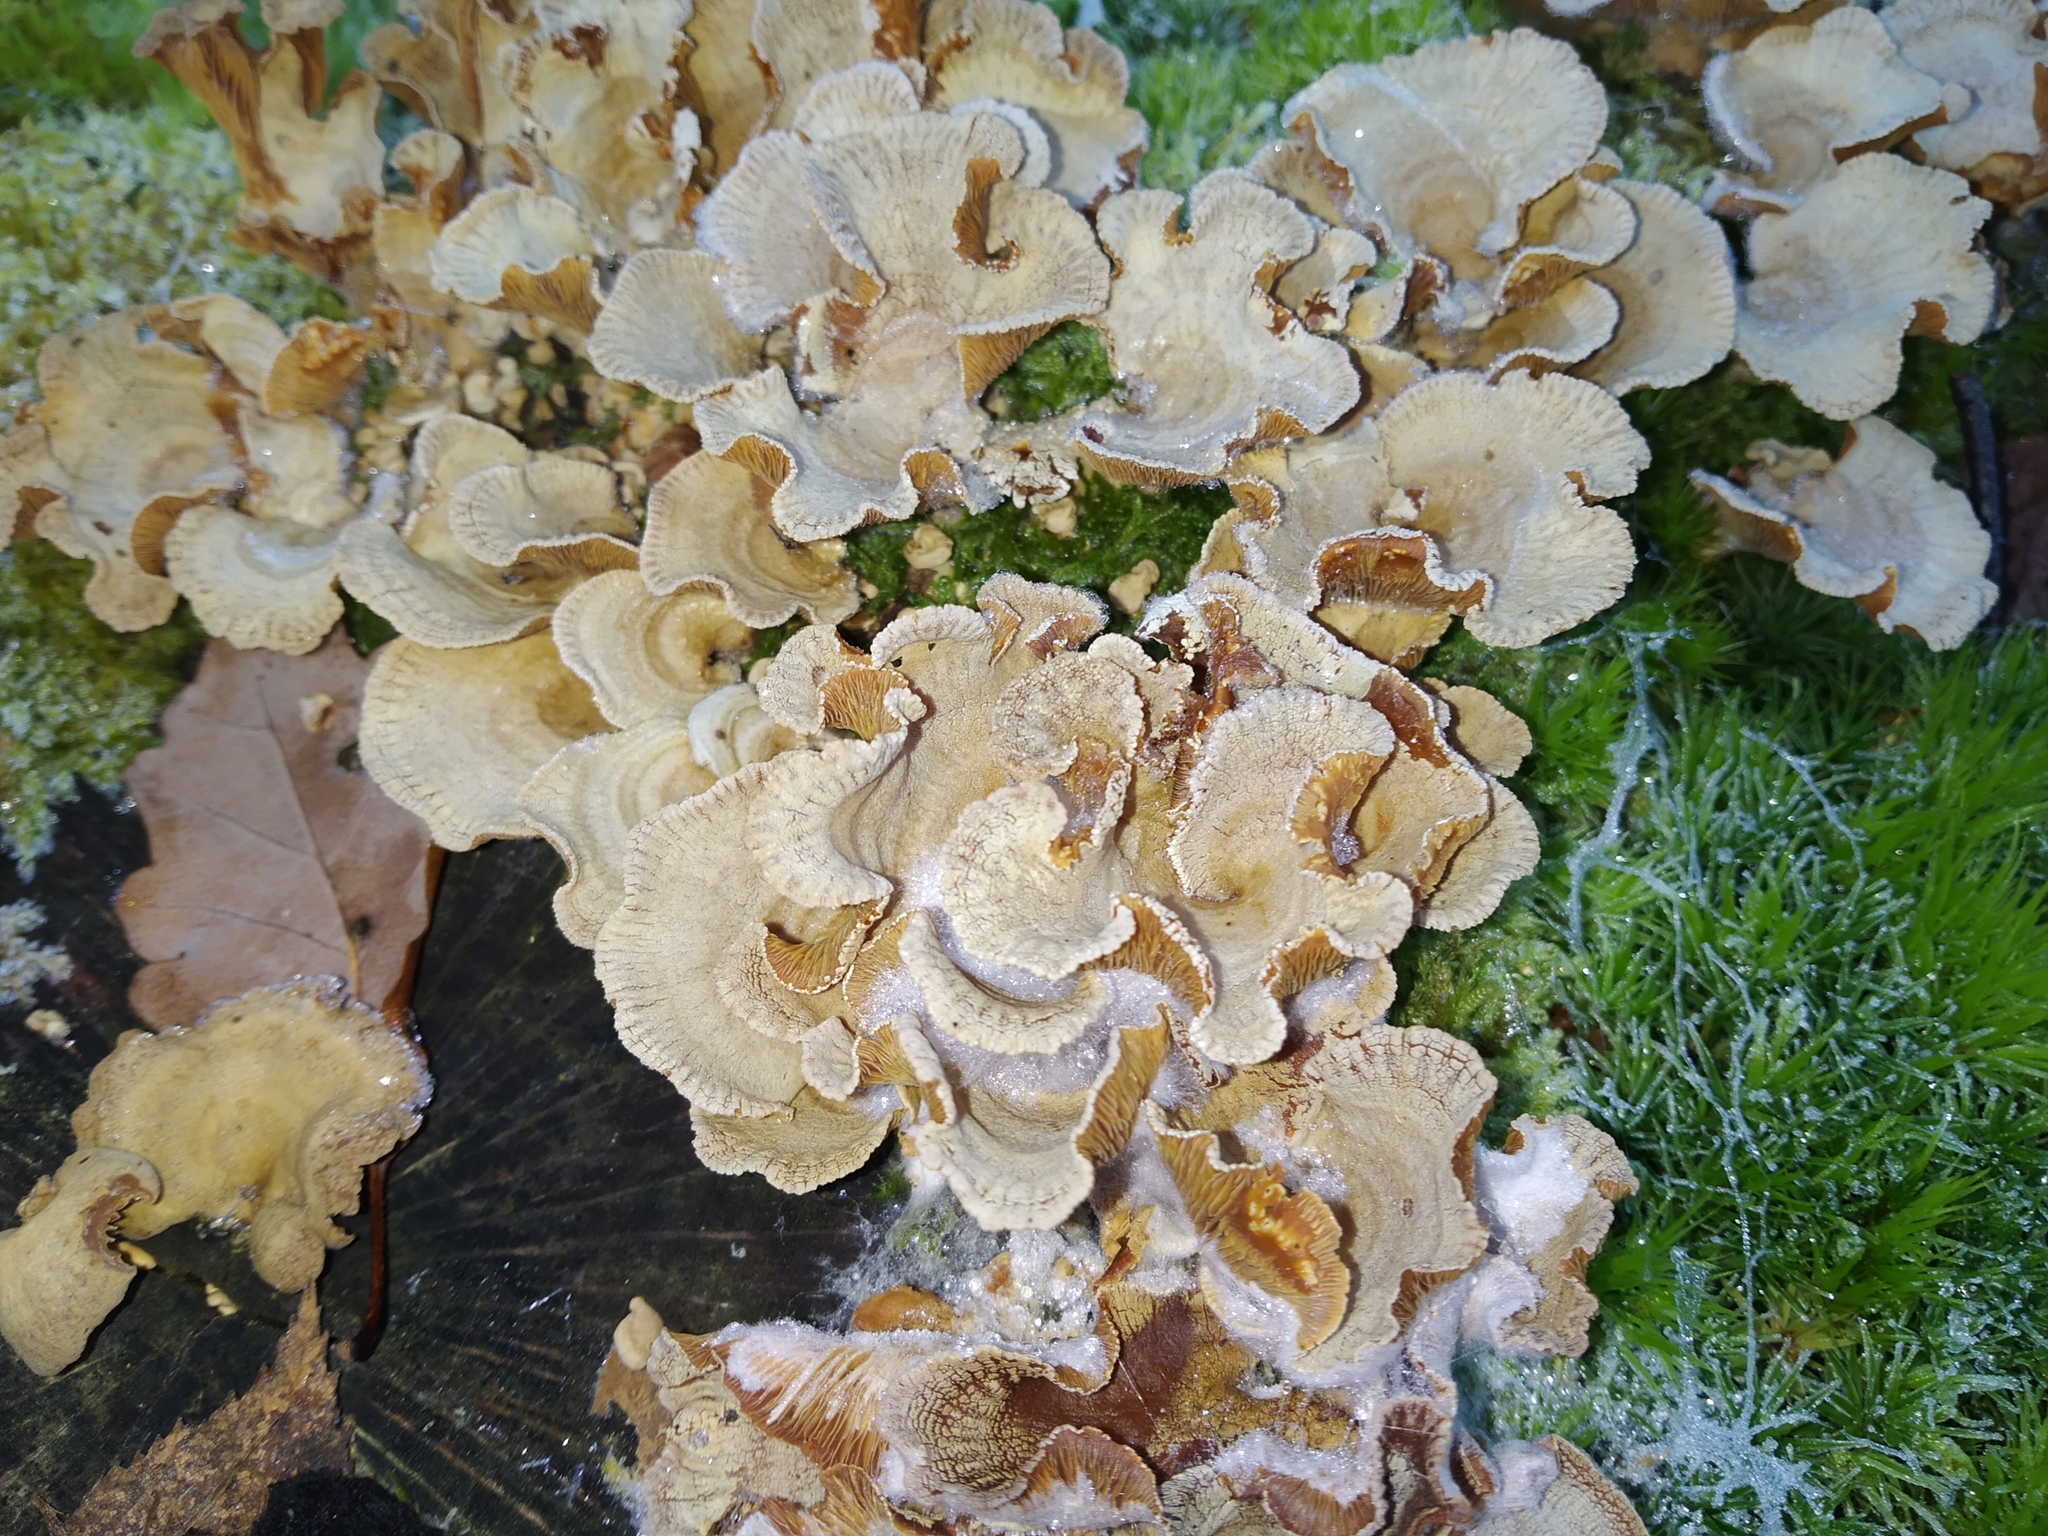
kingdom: Fungi
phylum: Basidiomycota
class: Agaricomycetes
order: Agaricales
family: Schizophyllaceae
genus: Schizophyllum
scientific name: Schizophyllum commune
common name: Common porecrust
